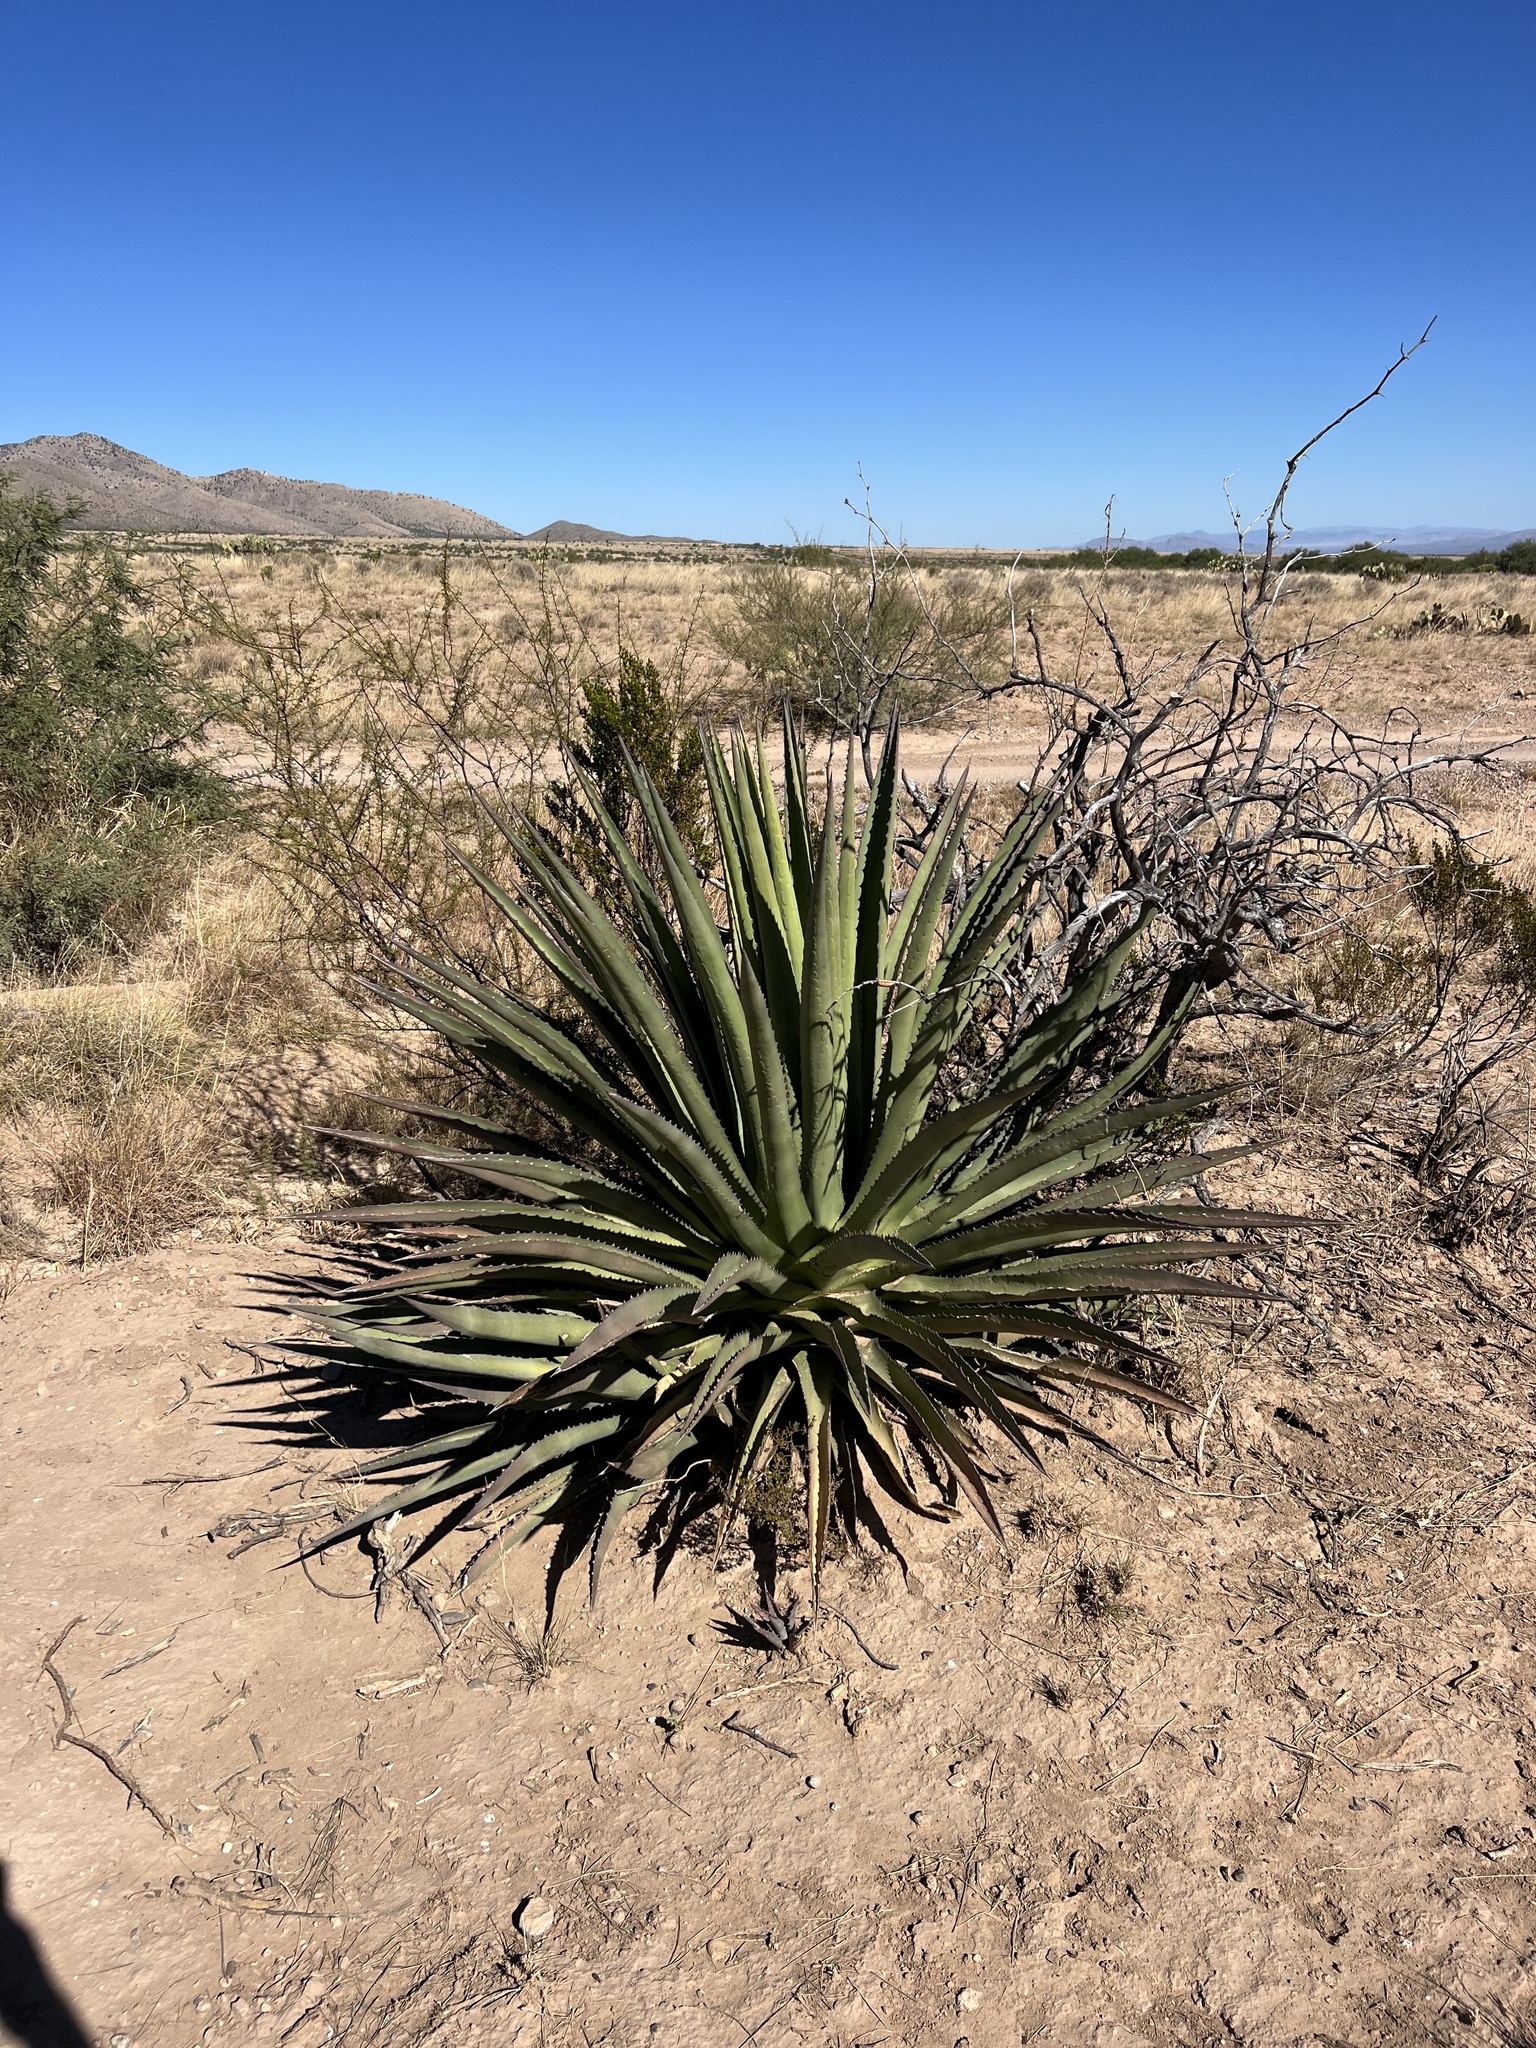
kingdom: Plantae
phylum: Tracheophyta
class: Liliopsida
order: Asparagales
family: Asparagaceae
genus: Agave
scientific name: Agave palmeri
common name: Palmer agave
